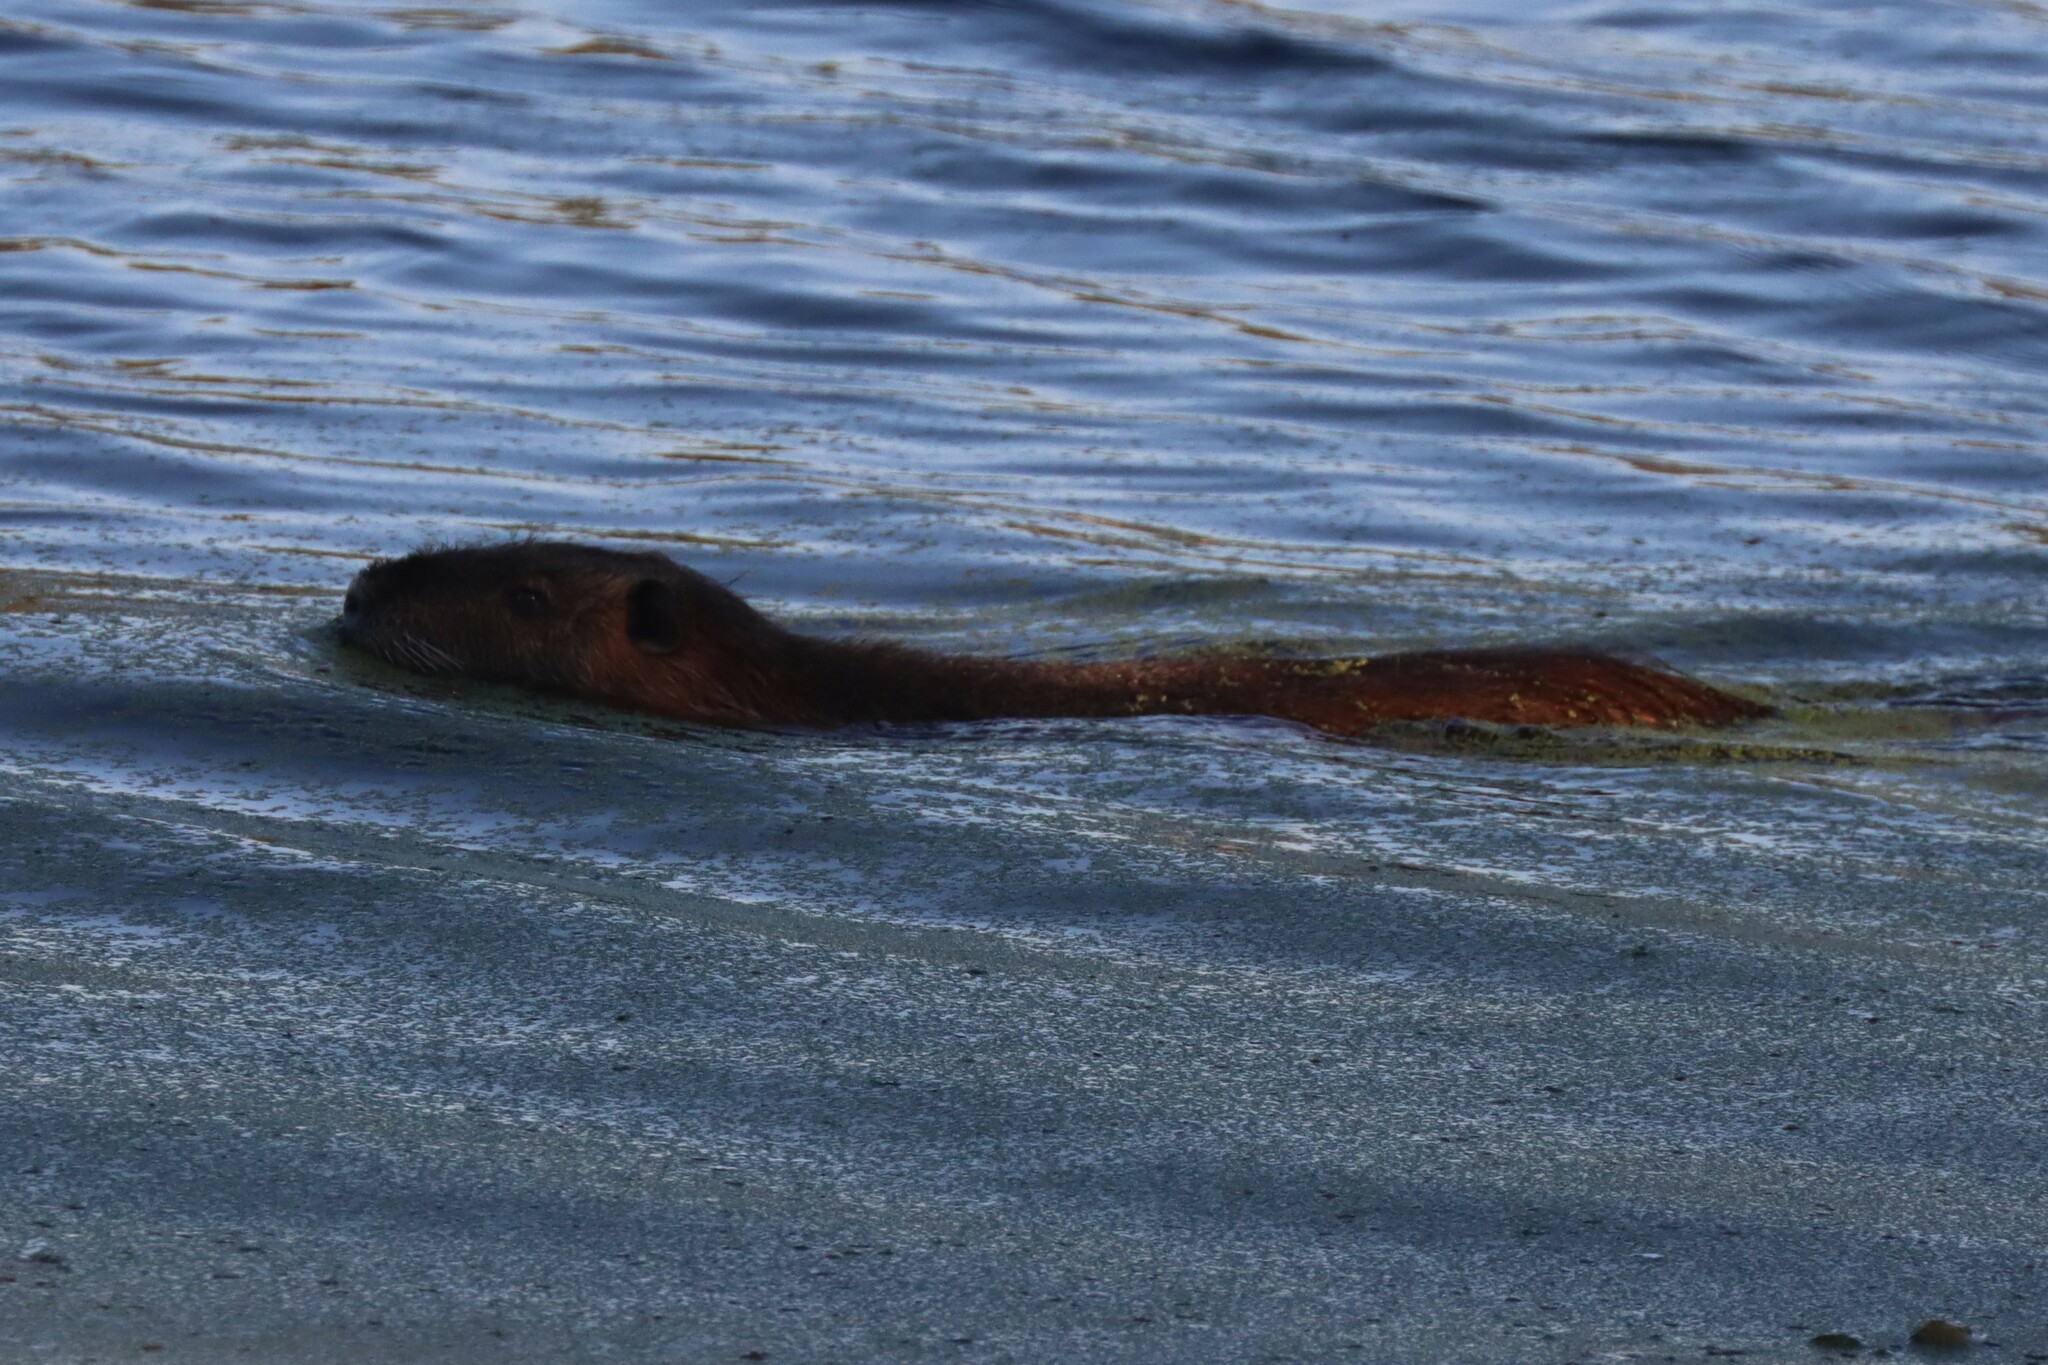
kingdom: Animalia
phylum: Chordata
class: Mammalia
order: Rodentia
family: Myocastoridae
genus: Myocastor
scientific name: Myocastor coypus
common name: Coypu
